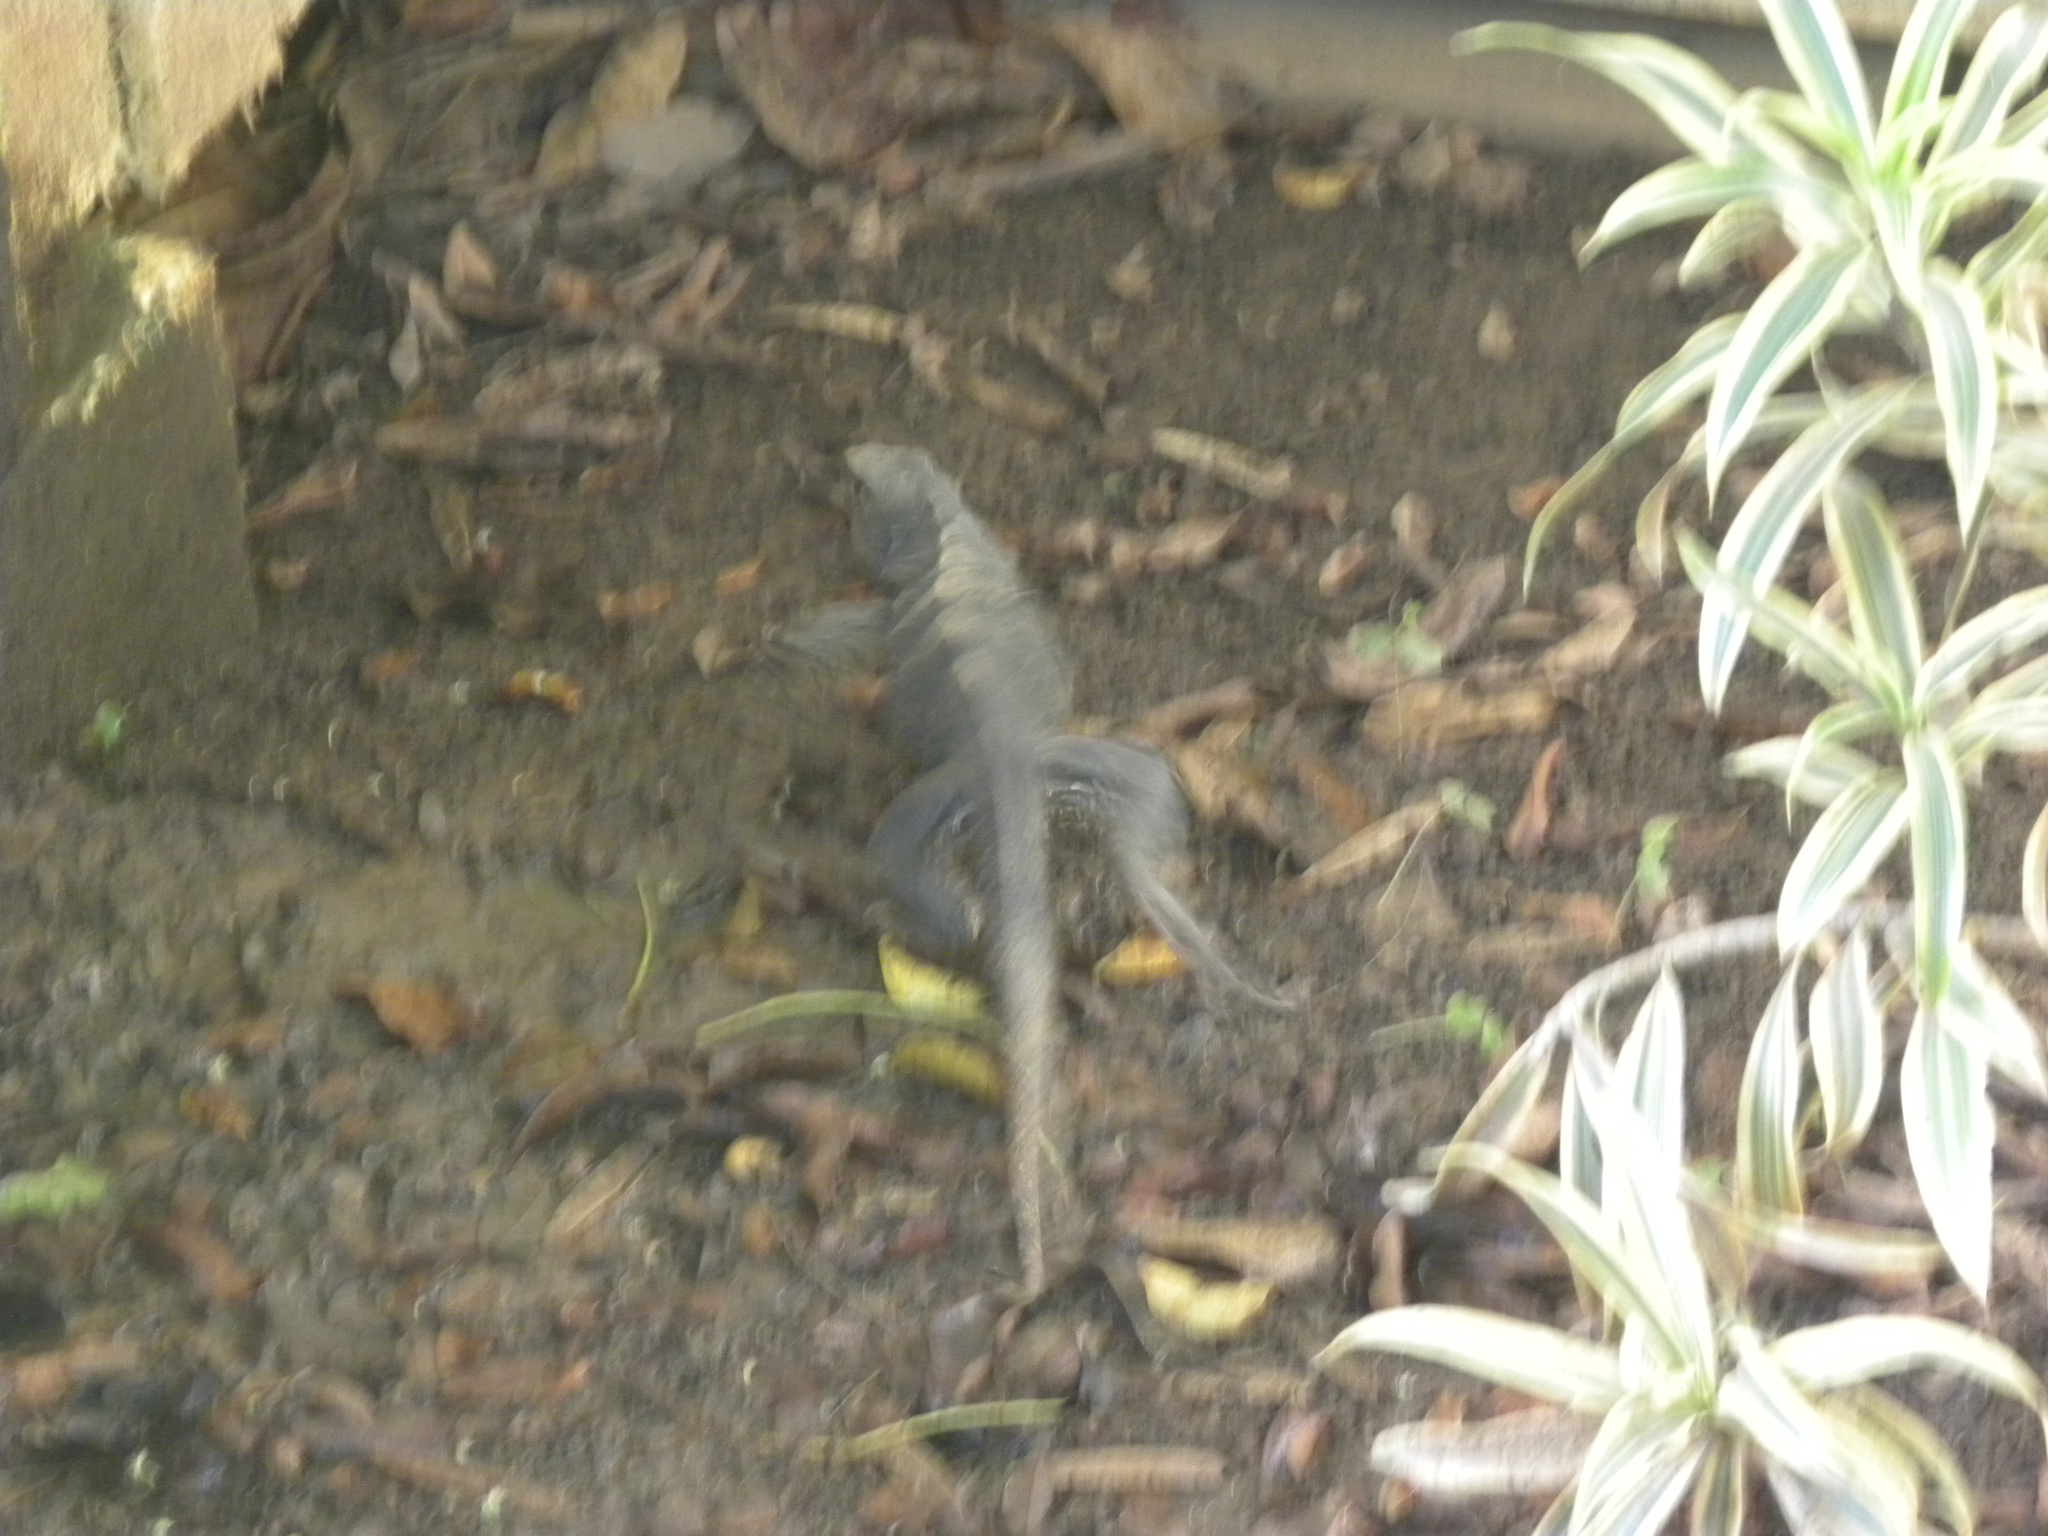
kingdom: Animalia
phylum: Chordata
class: Squamata
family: Iguanidae
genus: Ctenosaura
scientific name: Ctenosaura oedirhina
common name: Roatan spiny-tailed iguana
